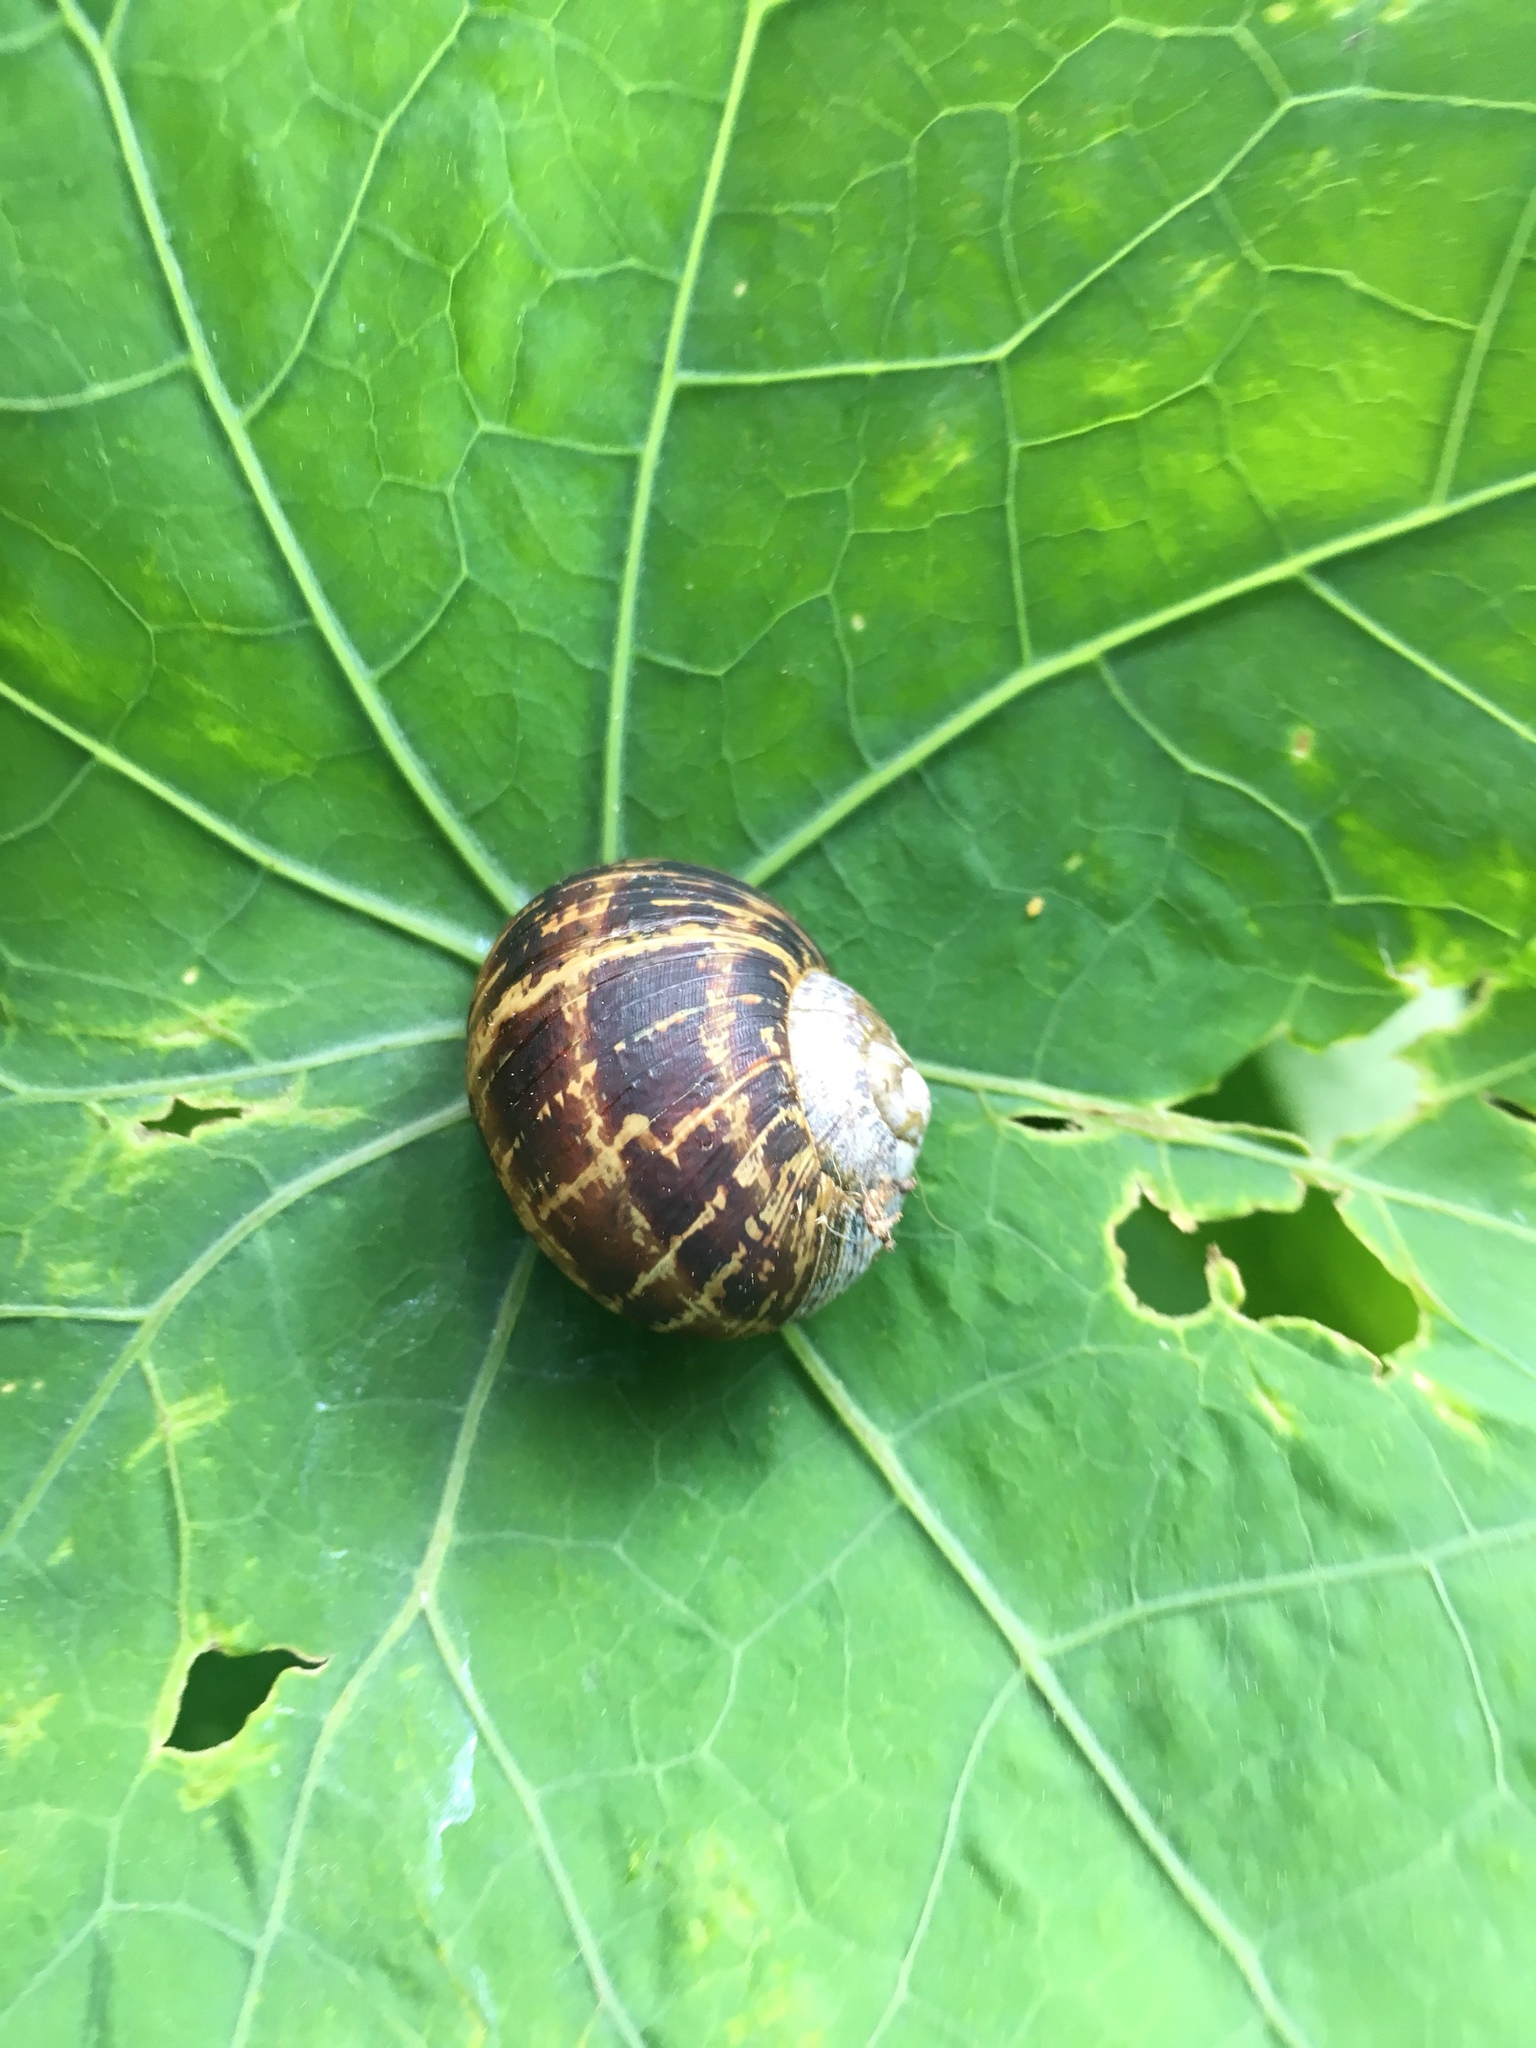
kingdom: Animalia
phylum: Mollusca
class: Gastropoda
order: Stylommatophora
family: Helicidae
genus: Cornu
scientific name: Cornu aspersum
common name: Brown garden snail
